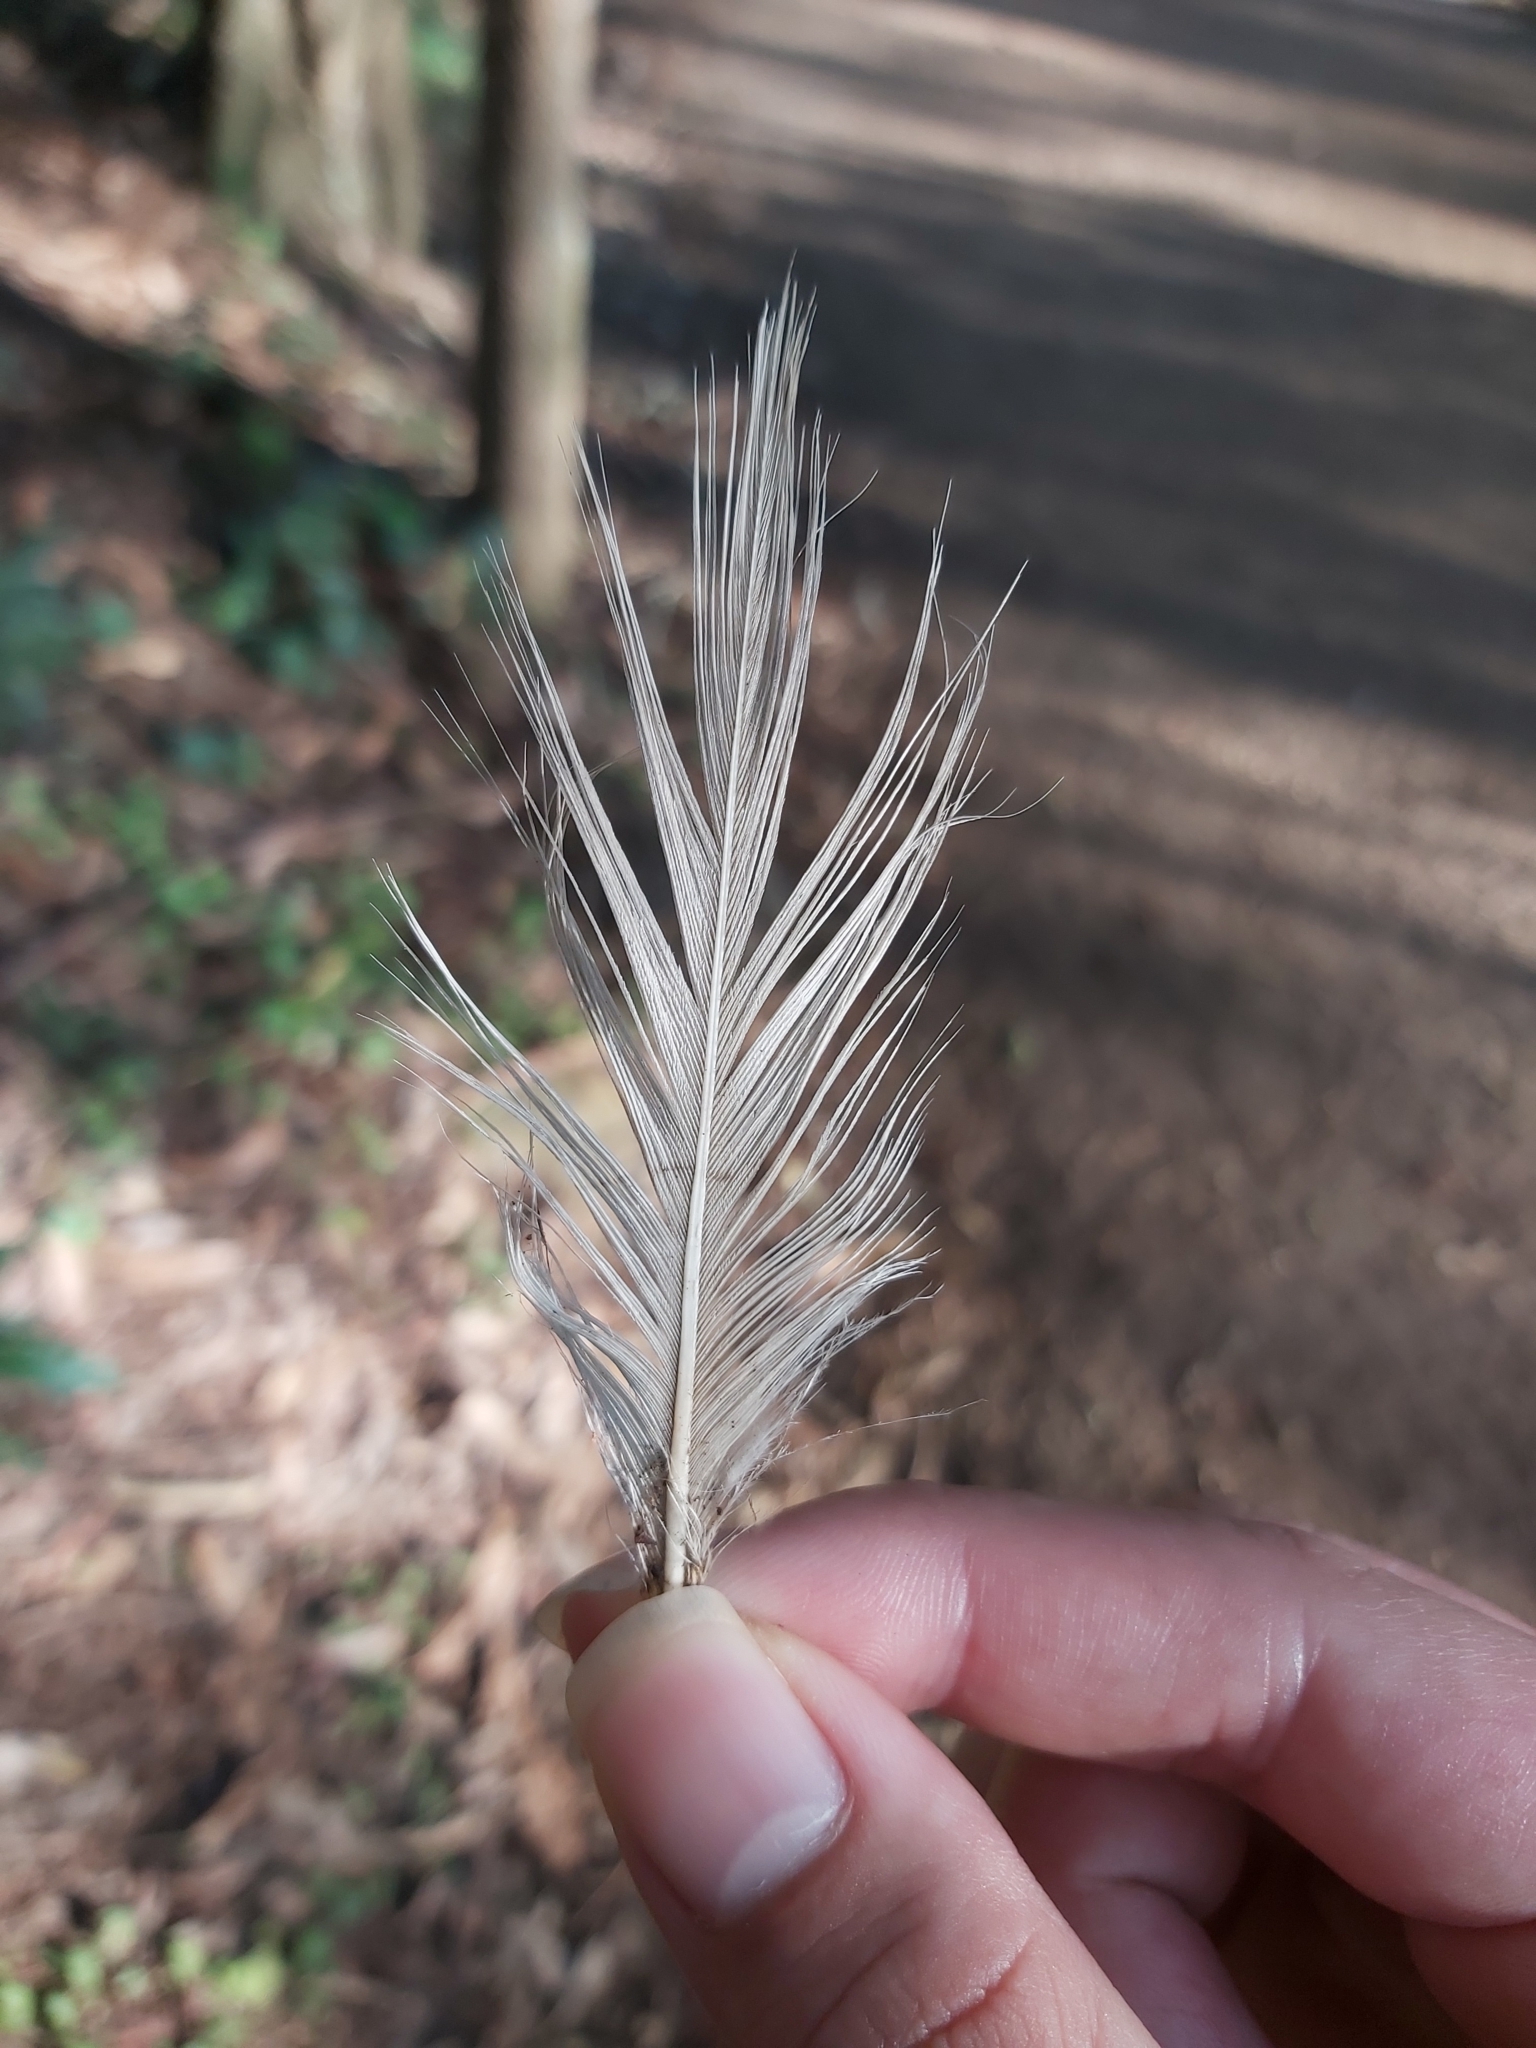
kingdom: Animalia
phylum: Chordata
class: Aves
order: Pelecaniformes
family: Threskiornithidae
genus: Threskiornis
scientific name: Threskiornis molucca
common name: Australian white ibis
